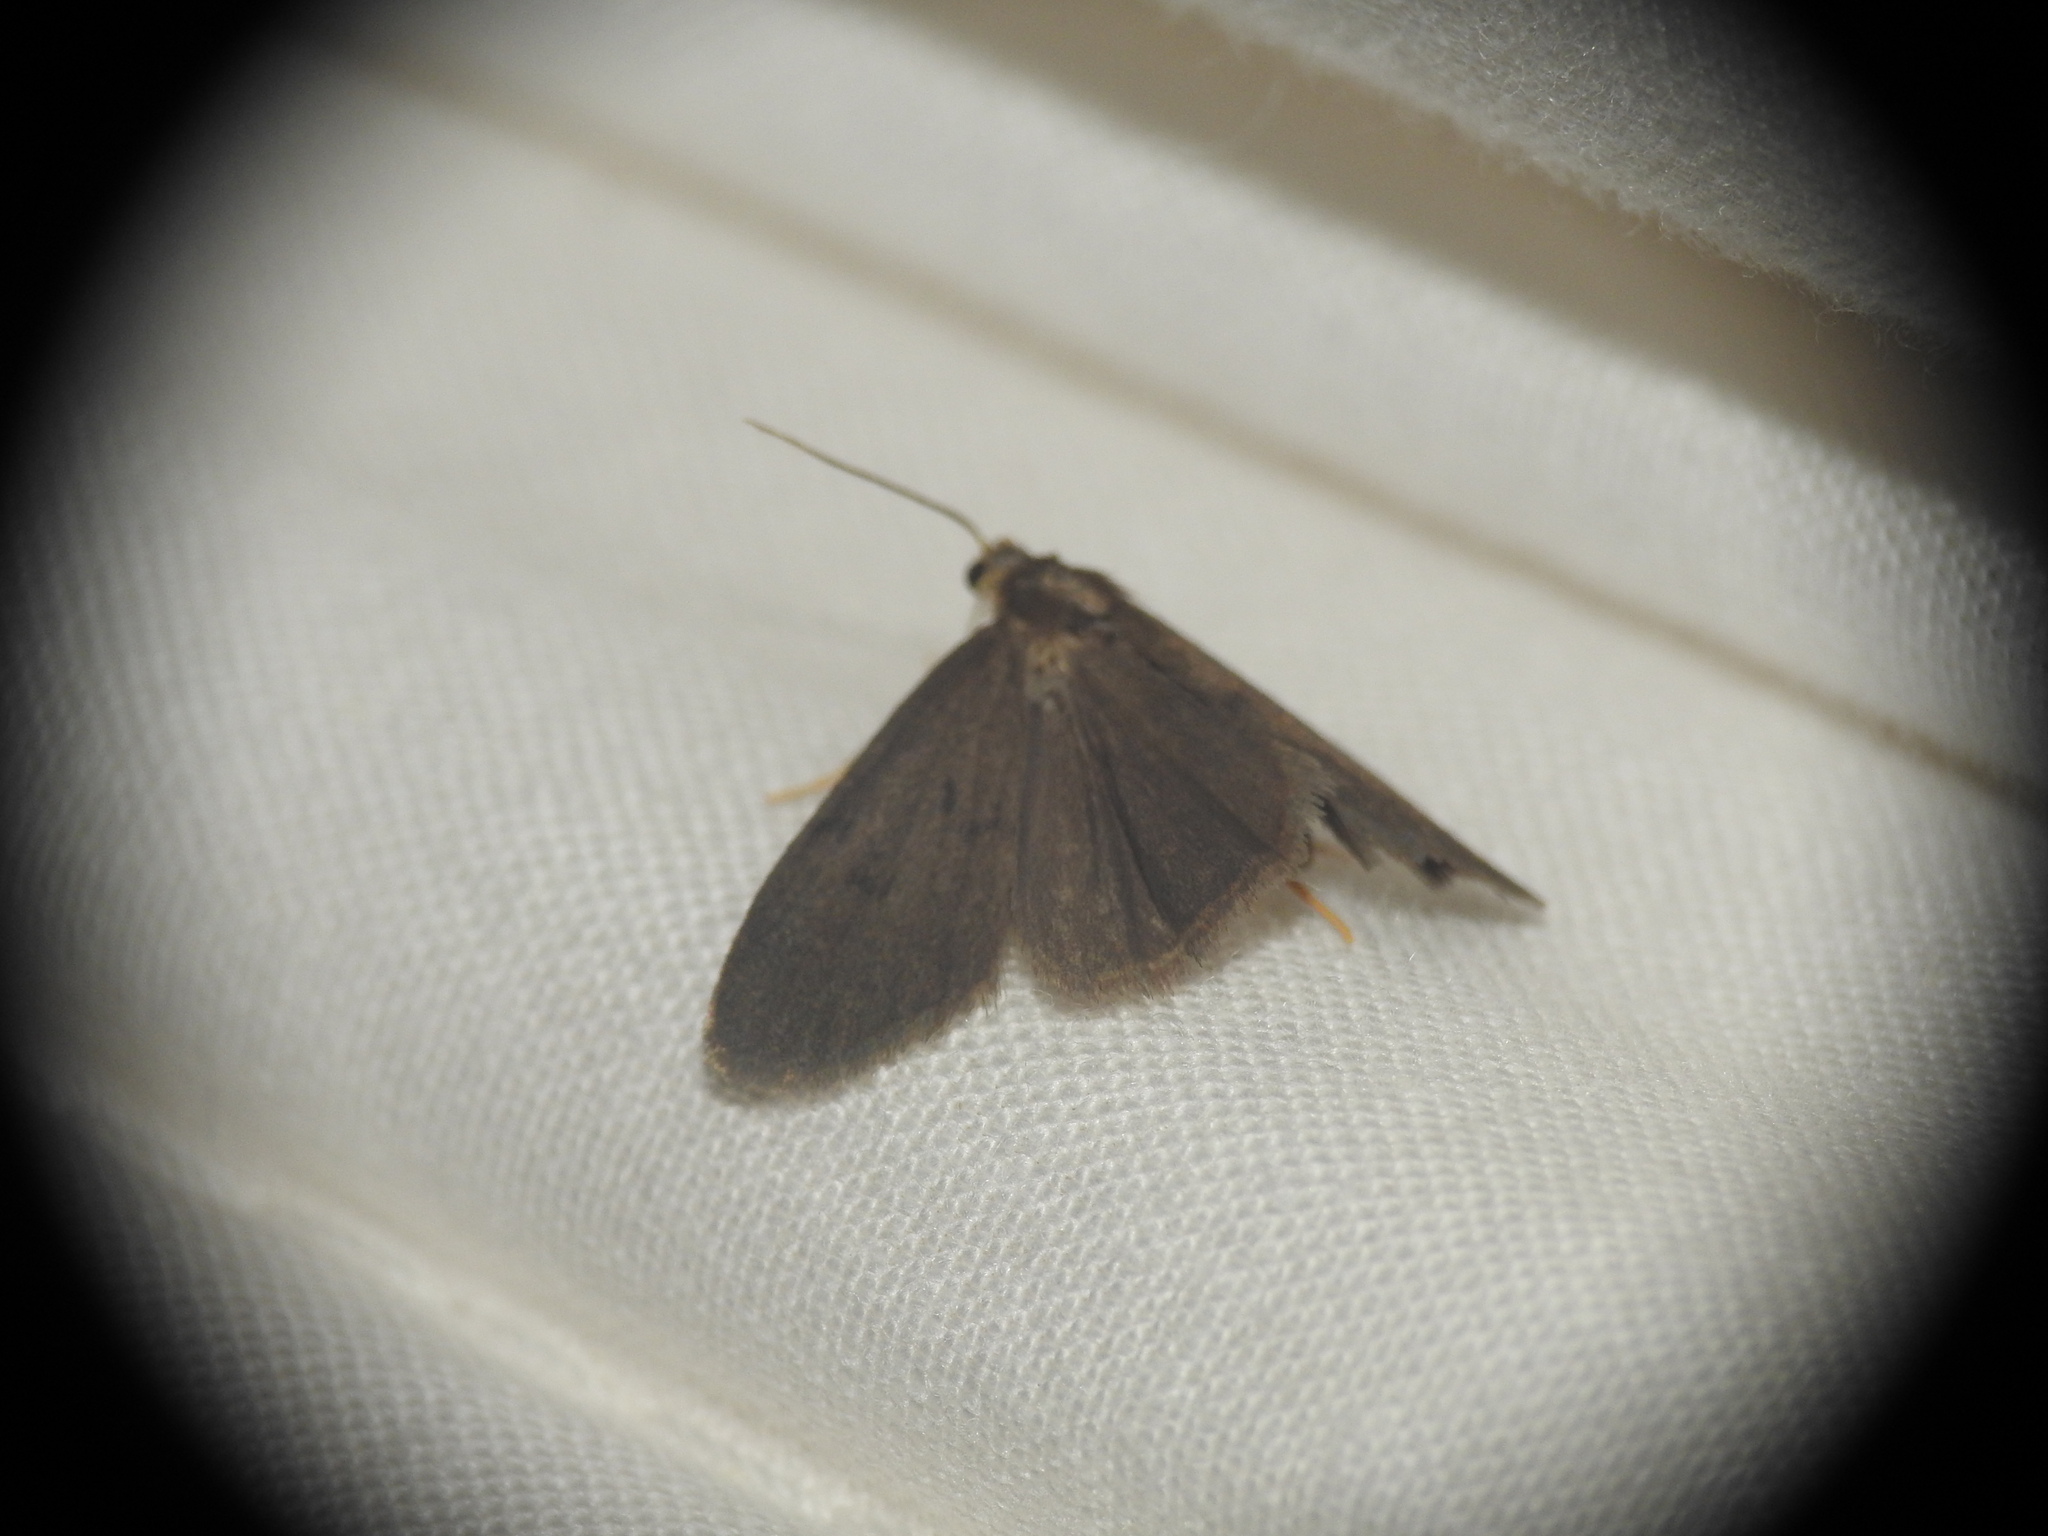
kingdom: Animalia
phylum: Arthropoda
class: Insecta
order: Lepidoptera
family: Erebidae
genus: Apaidia
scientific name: Apaidia mesogona
